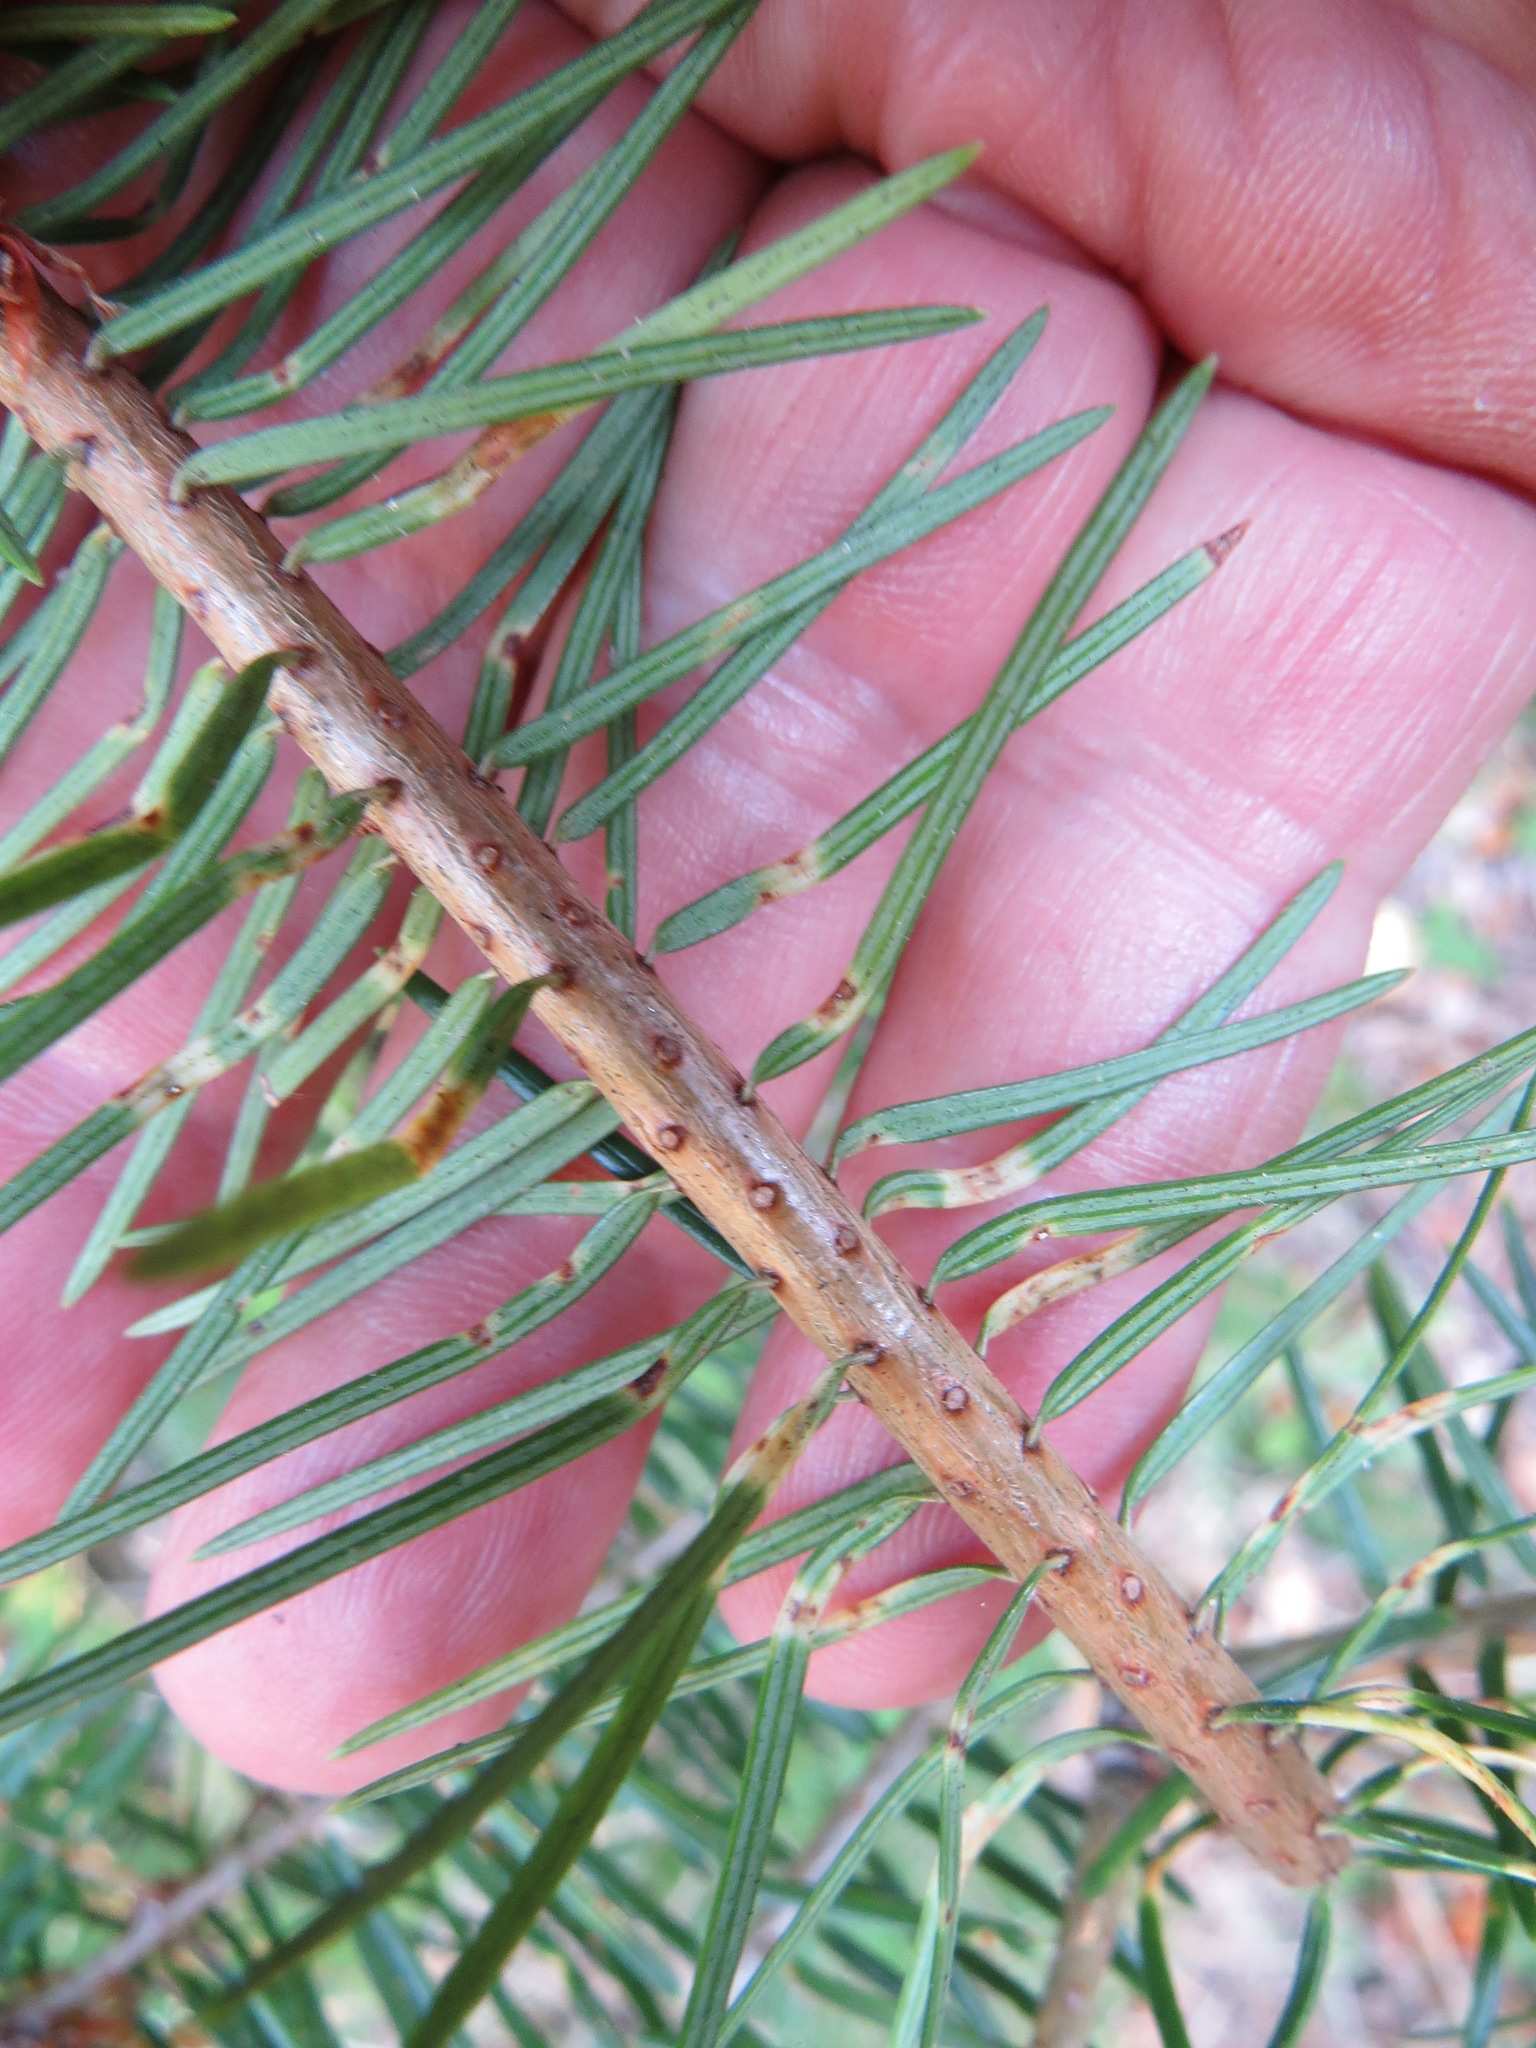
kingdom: Animalia
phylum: Arthropoda
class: Insecta
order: Diptera
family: Cecidomyiidae
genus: Contarinia
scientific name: Contarinia pseudotsugae
